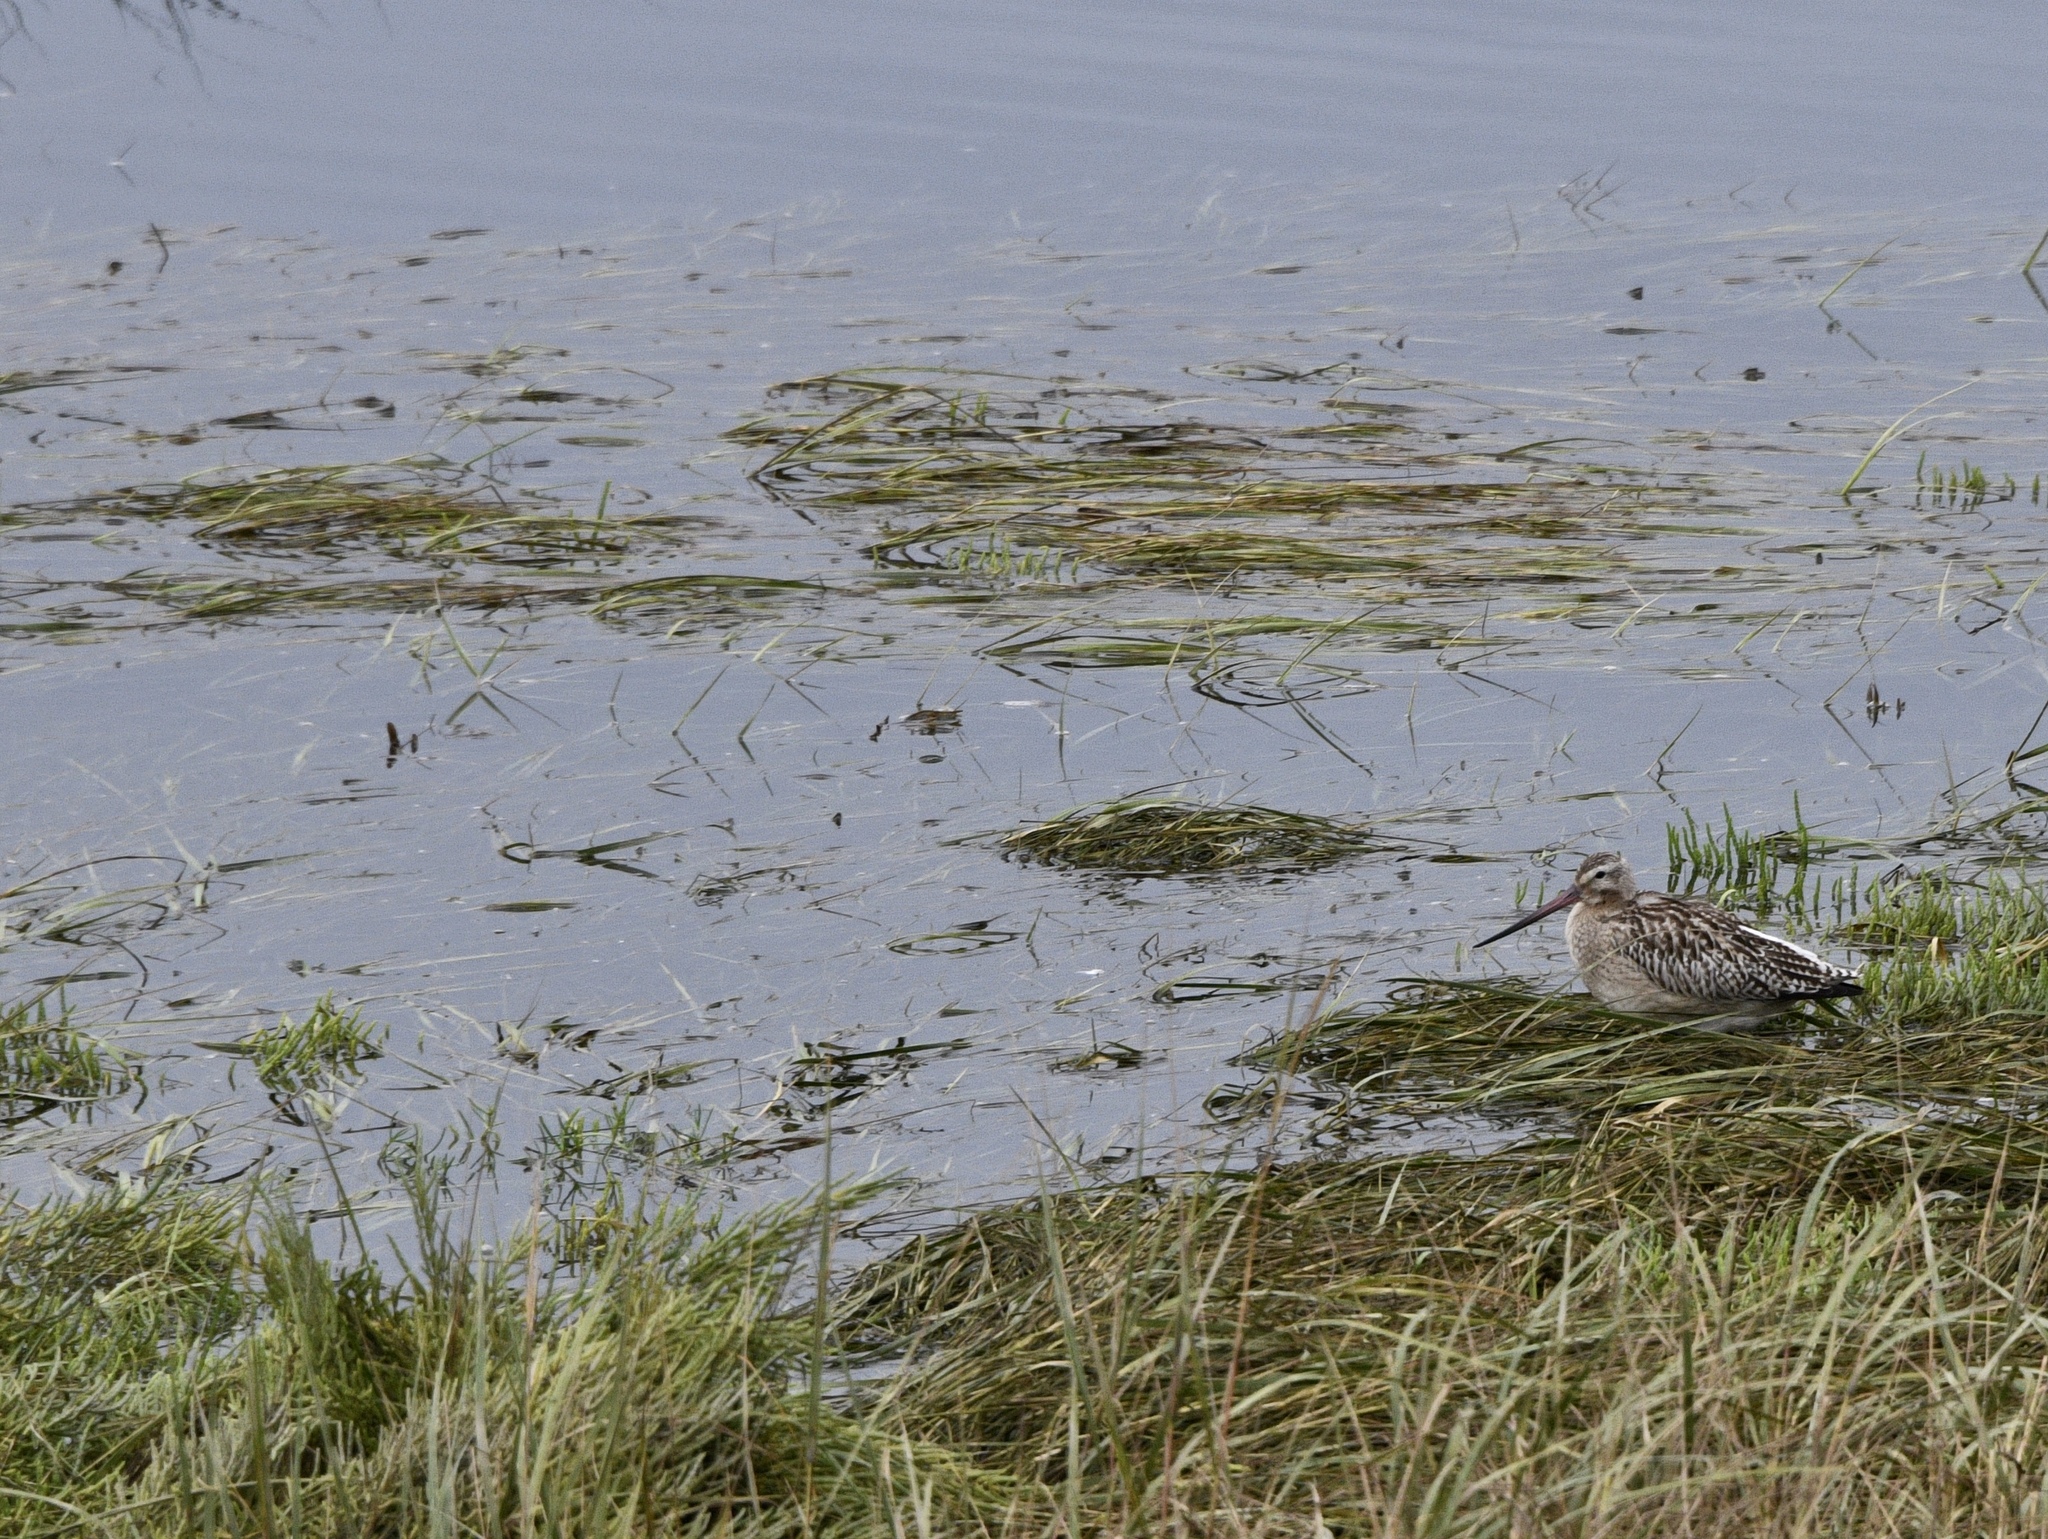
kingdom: Animalia
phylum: Chordata
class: Aves
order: Charadriiformes
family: Scolopacidae
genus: Gallinago
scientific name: Gallinago gallinago
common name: Common snipe
